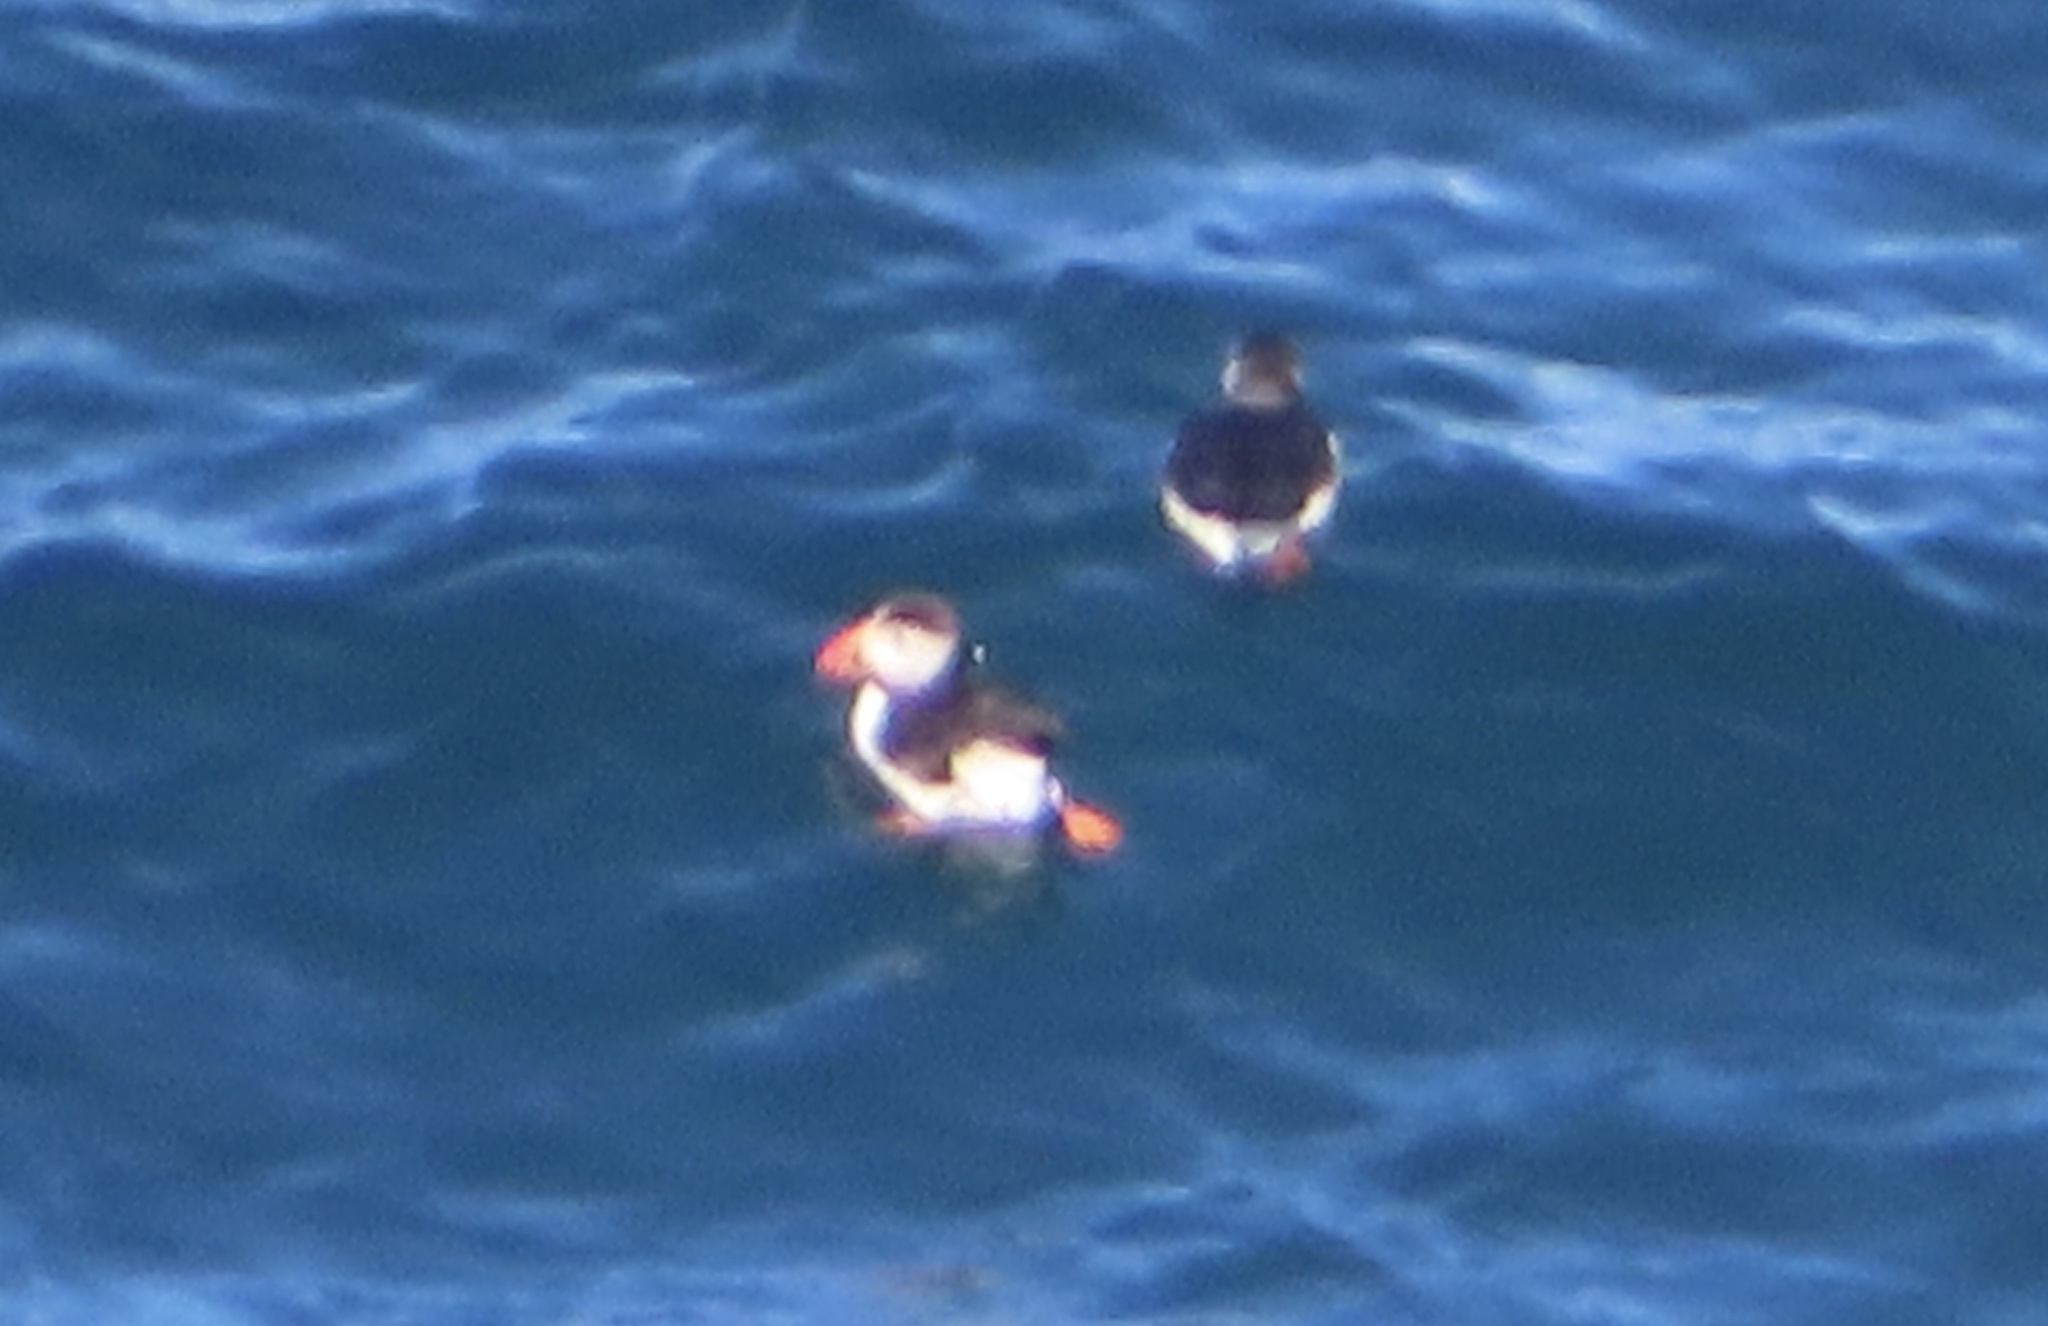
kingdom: Animalia
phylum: Chordata
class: Aves
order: Charadriiformes
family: Alcidae
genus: Fratercula
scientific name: Fratercula arctica
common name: Atlantic puffin
